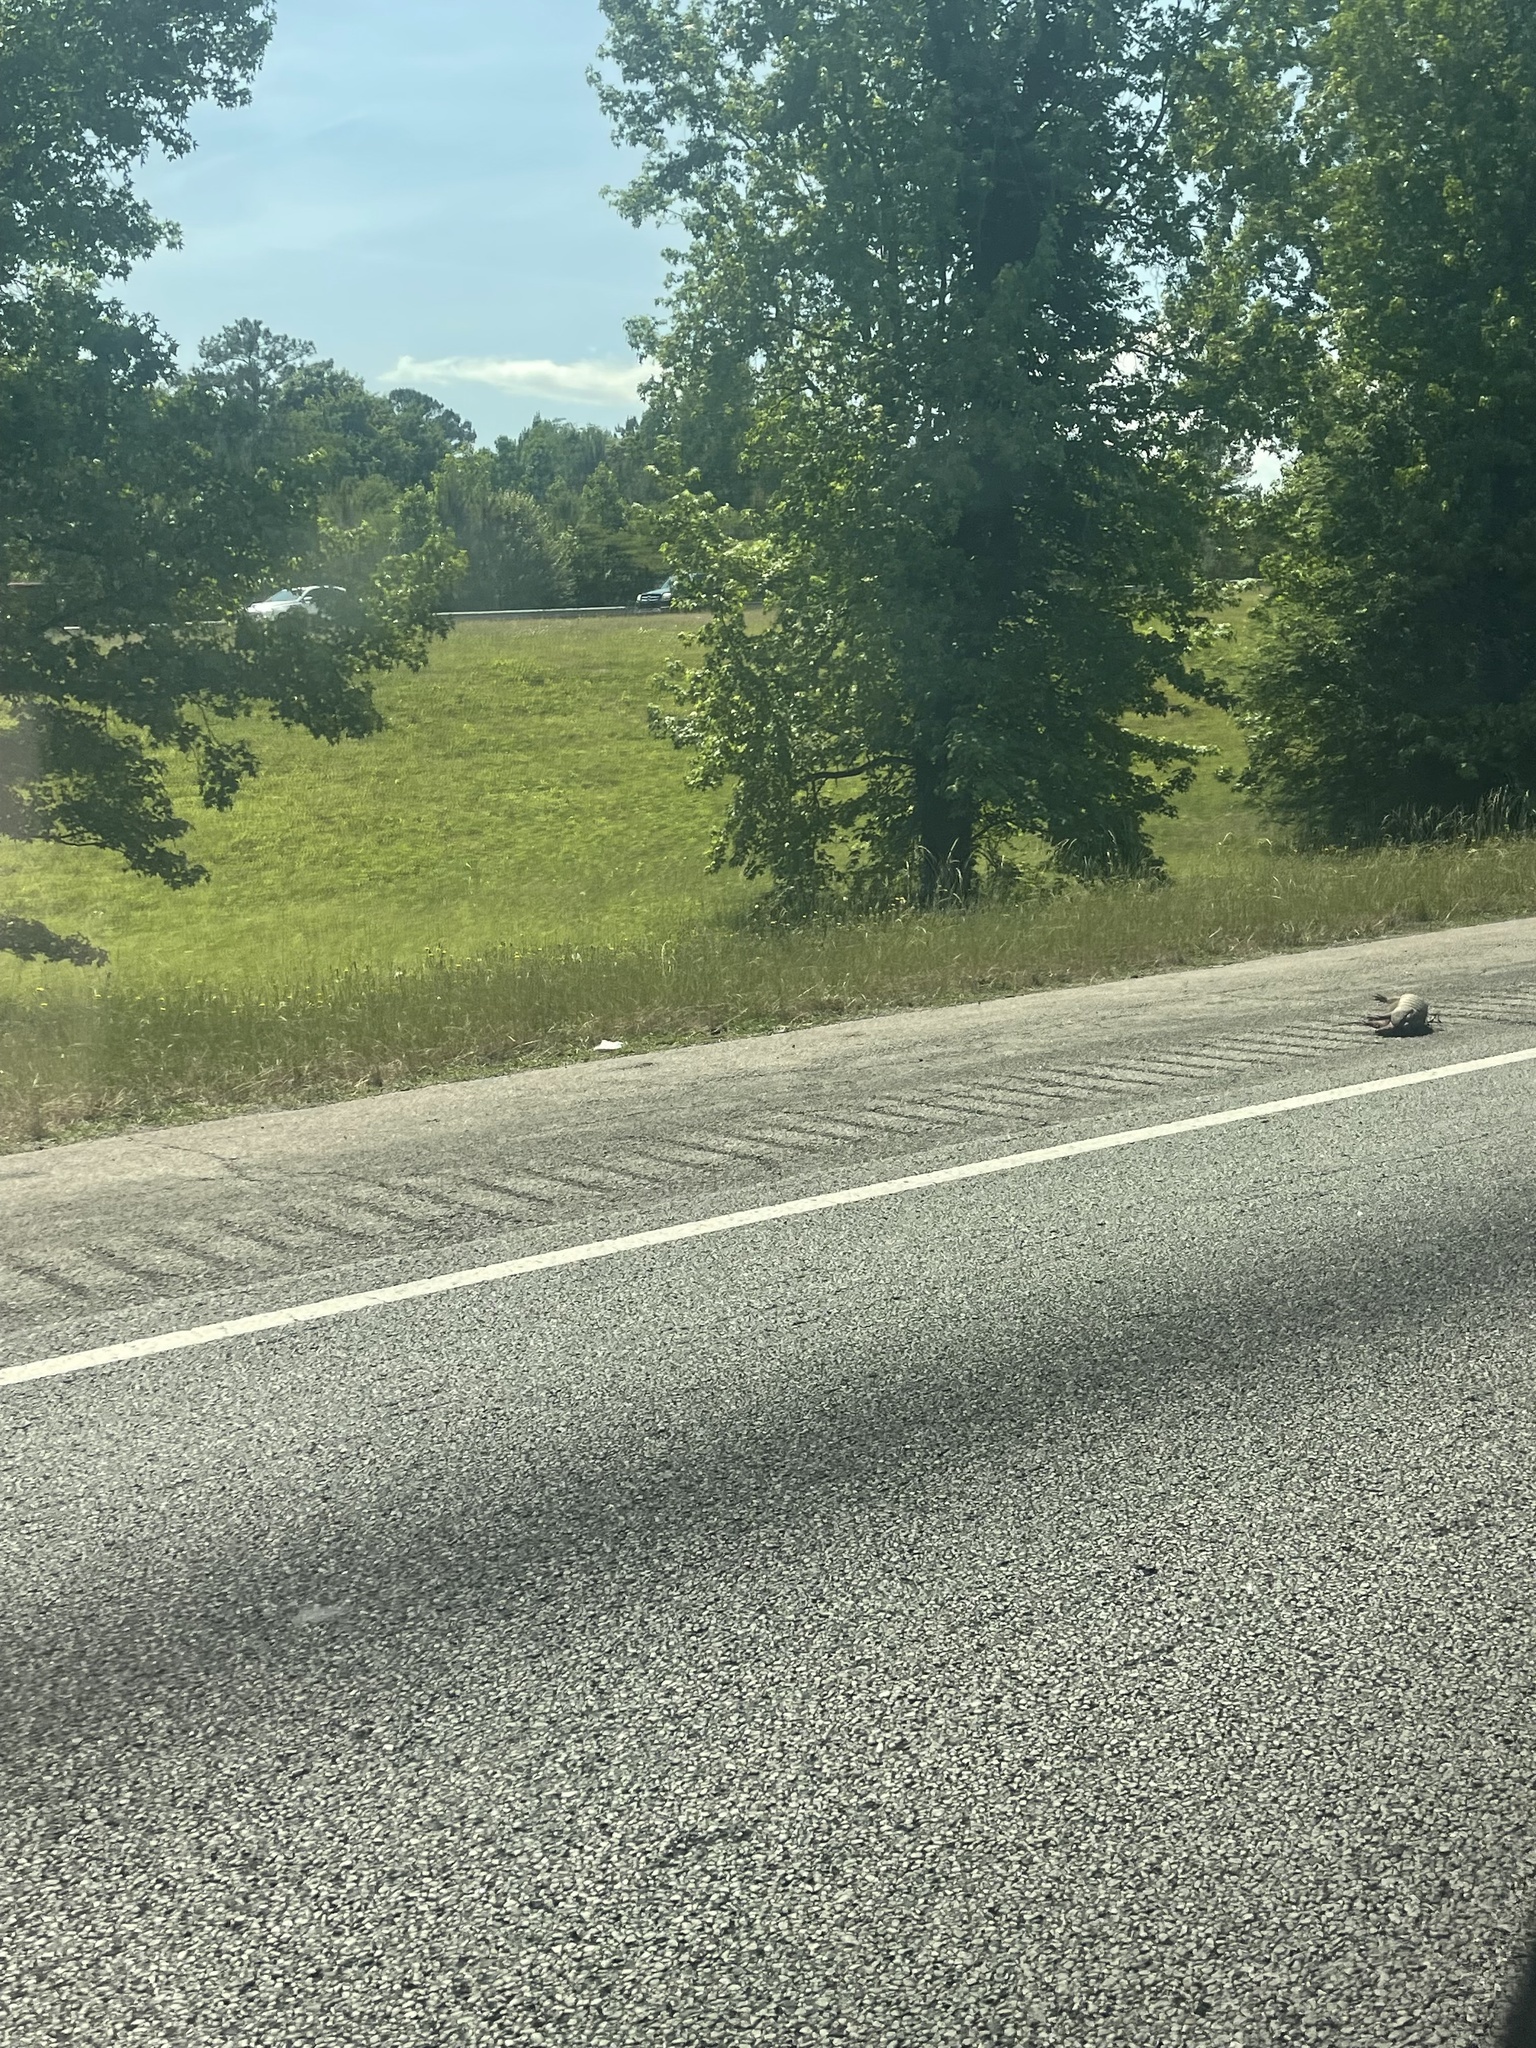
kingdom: Animalia
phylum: Chordata
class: Mammalia
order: Cingulata
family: Dasypodidae
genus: Dasypus
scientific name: Dasypus novemcinctus
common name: Nine-banded armadillo
